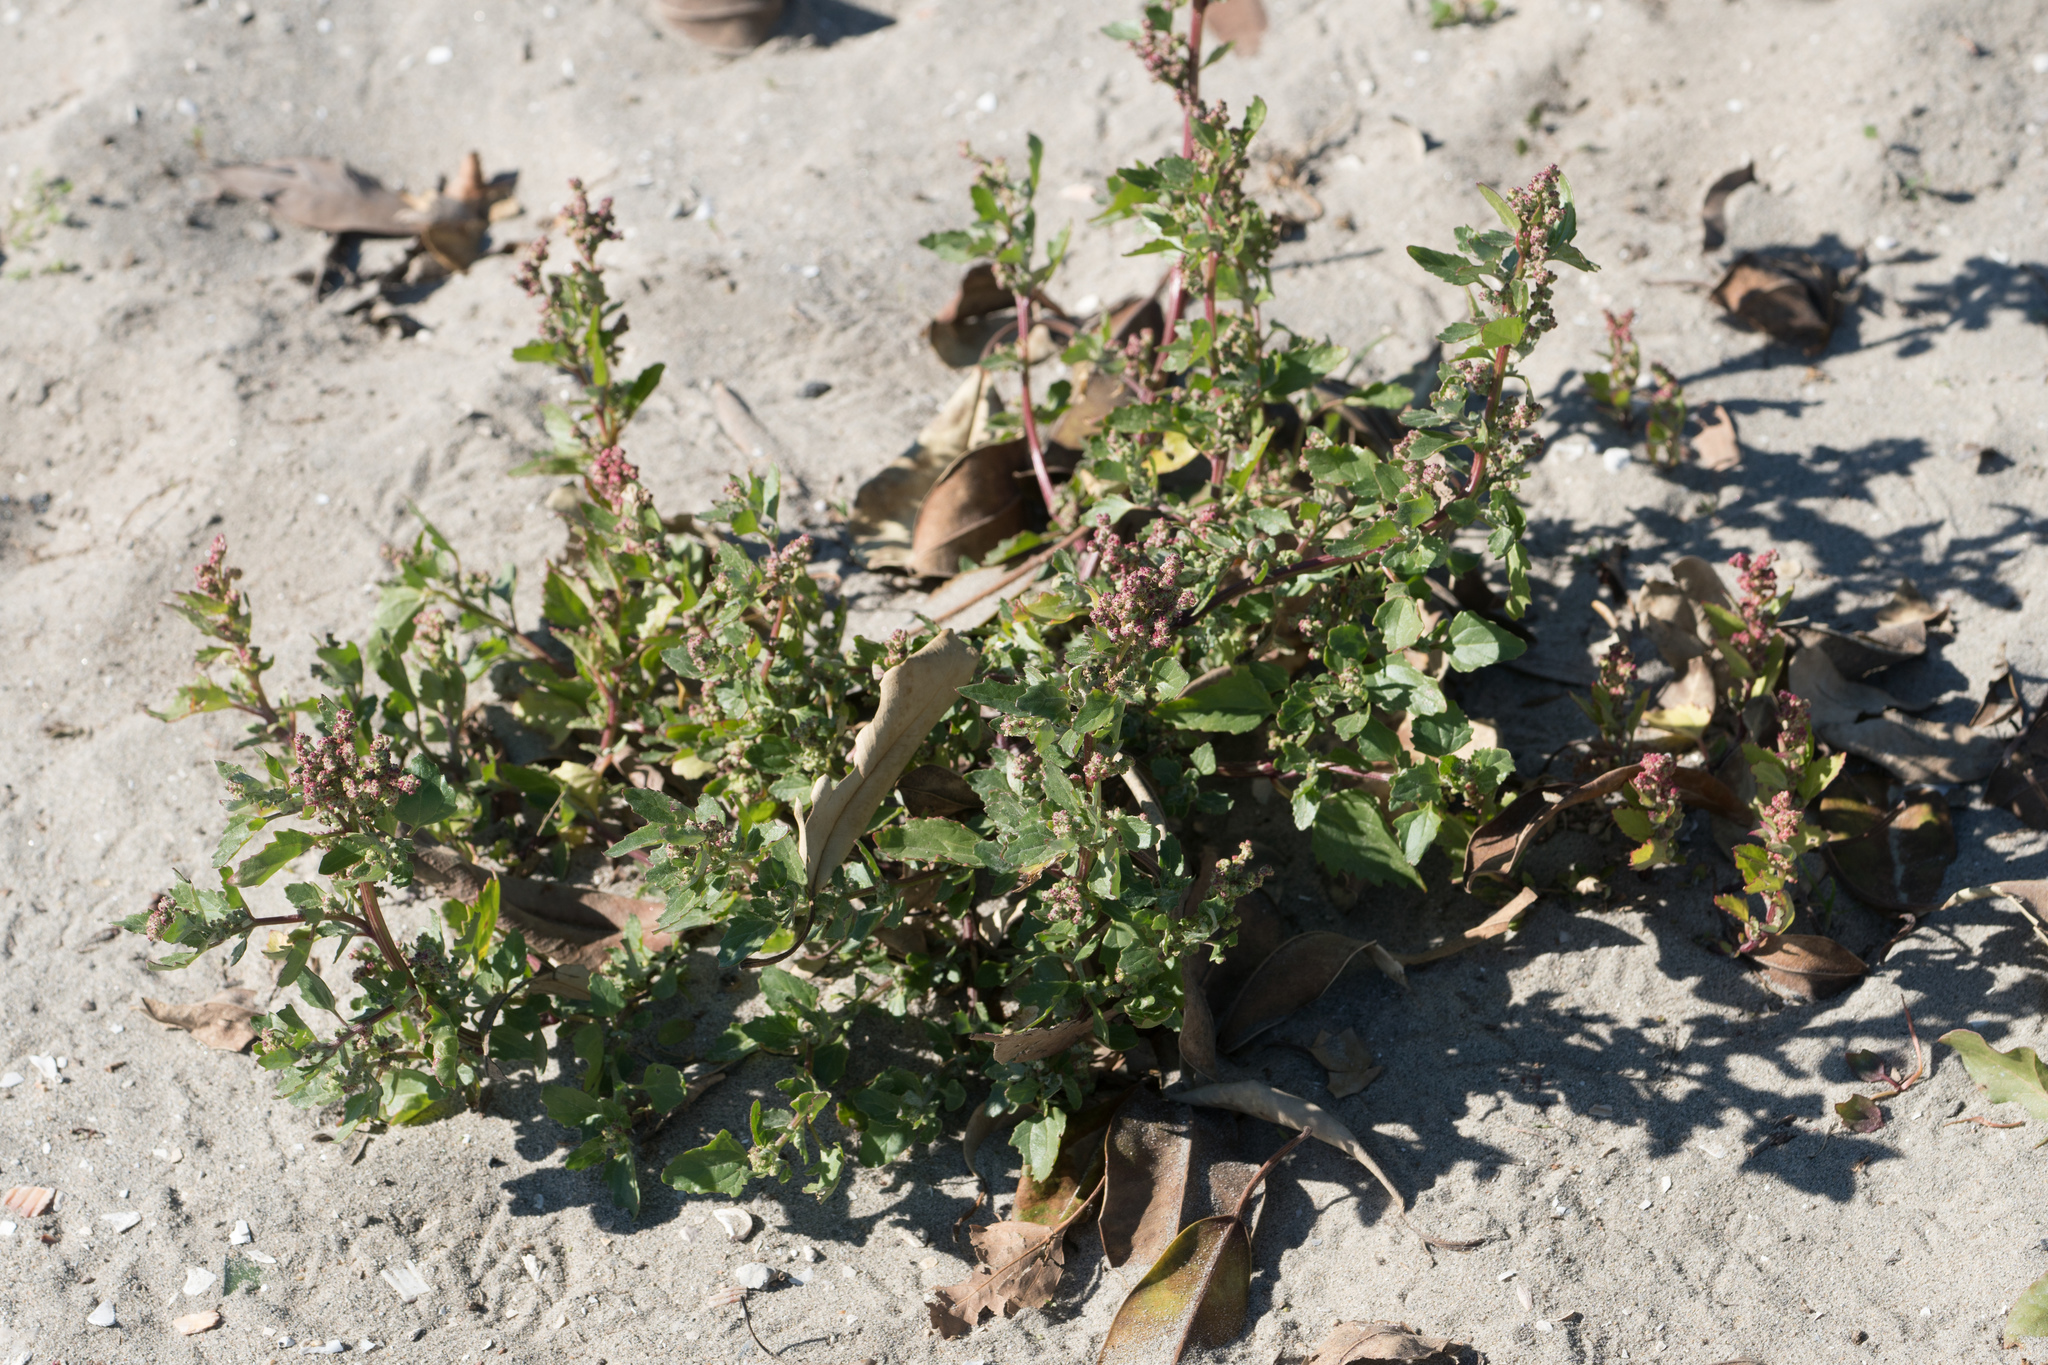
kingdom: Plantae
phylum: Tracheophyta
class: Magnoliopsida
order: Caryophyllales
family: Amaranthaceae
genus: Chenopodiastrum
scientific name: Chenopodiastrum murale
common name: Sowbane
